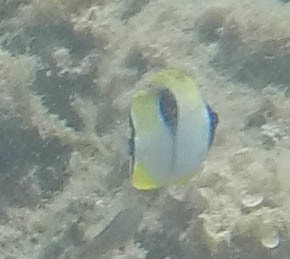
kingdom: Animalia
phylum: Chordata
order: Perciformes
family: Chaetodontidae
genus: Chaetodon
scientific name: Chaetodon unimaculatus
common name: Teardrop butterflyfish
